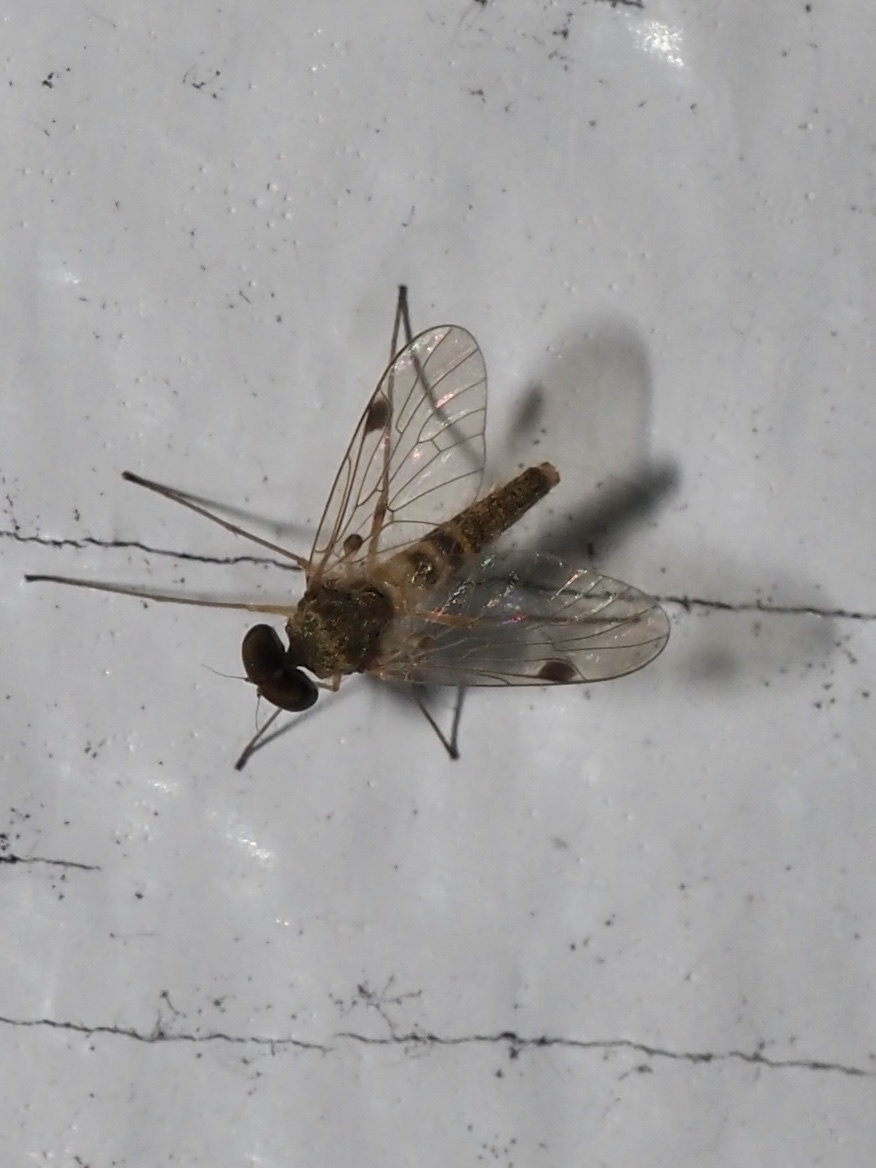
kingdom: Animalia
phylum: Arthropoda
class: Insecta
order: Diptera
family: Rhagionidae
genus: Chrysopilus
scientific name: Chrysopilus modestus
